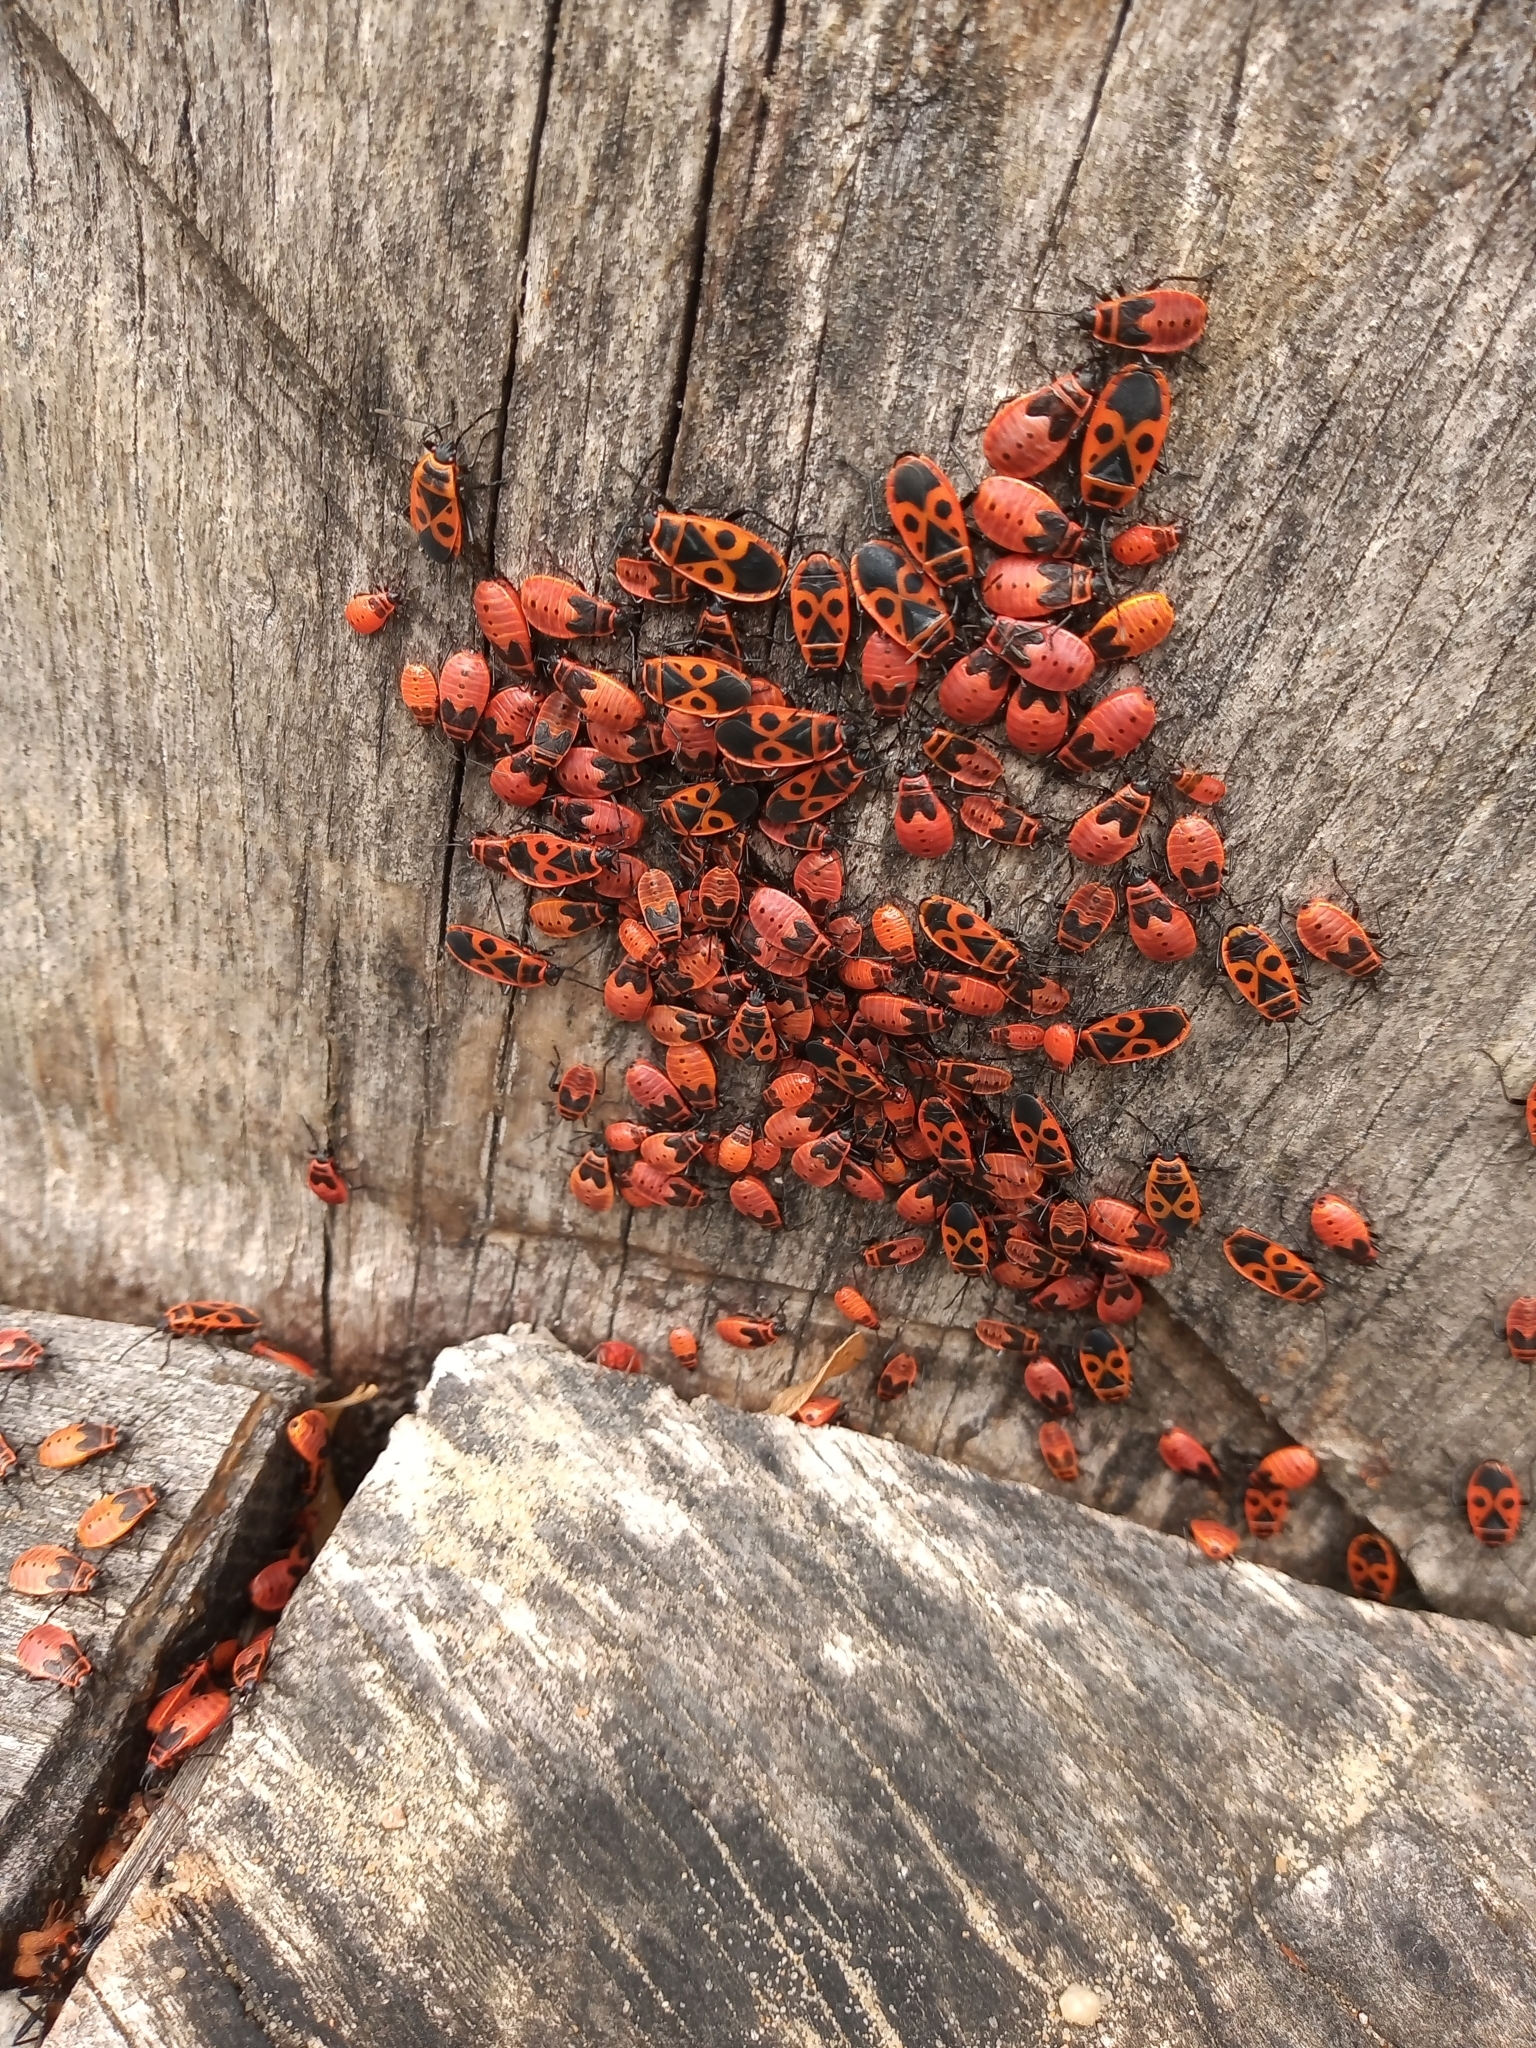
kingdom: Animalia
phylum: Arthropoda
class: Insecta
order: Hemiptera
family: Pyrrhocoridae
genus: Pyrrhocoris
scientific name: Pyrrhocoris apterus
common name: Firebug
